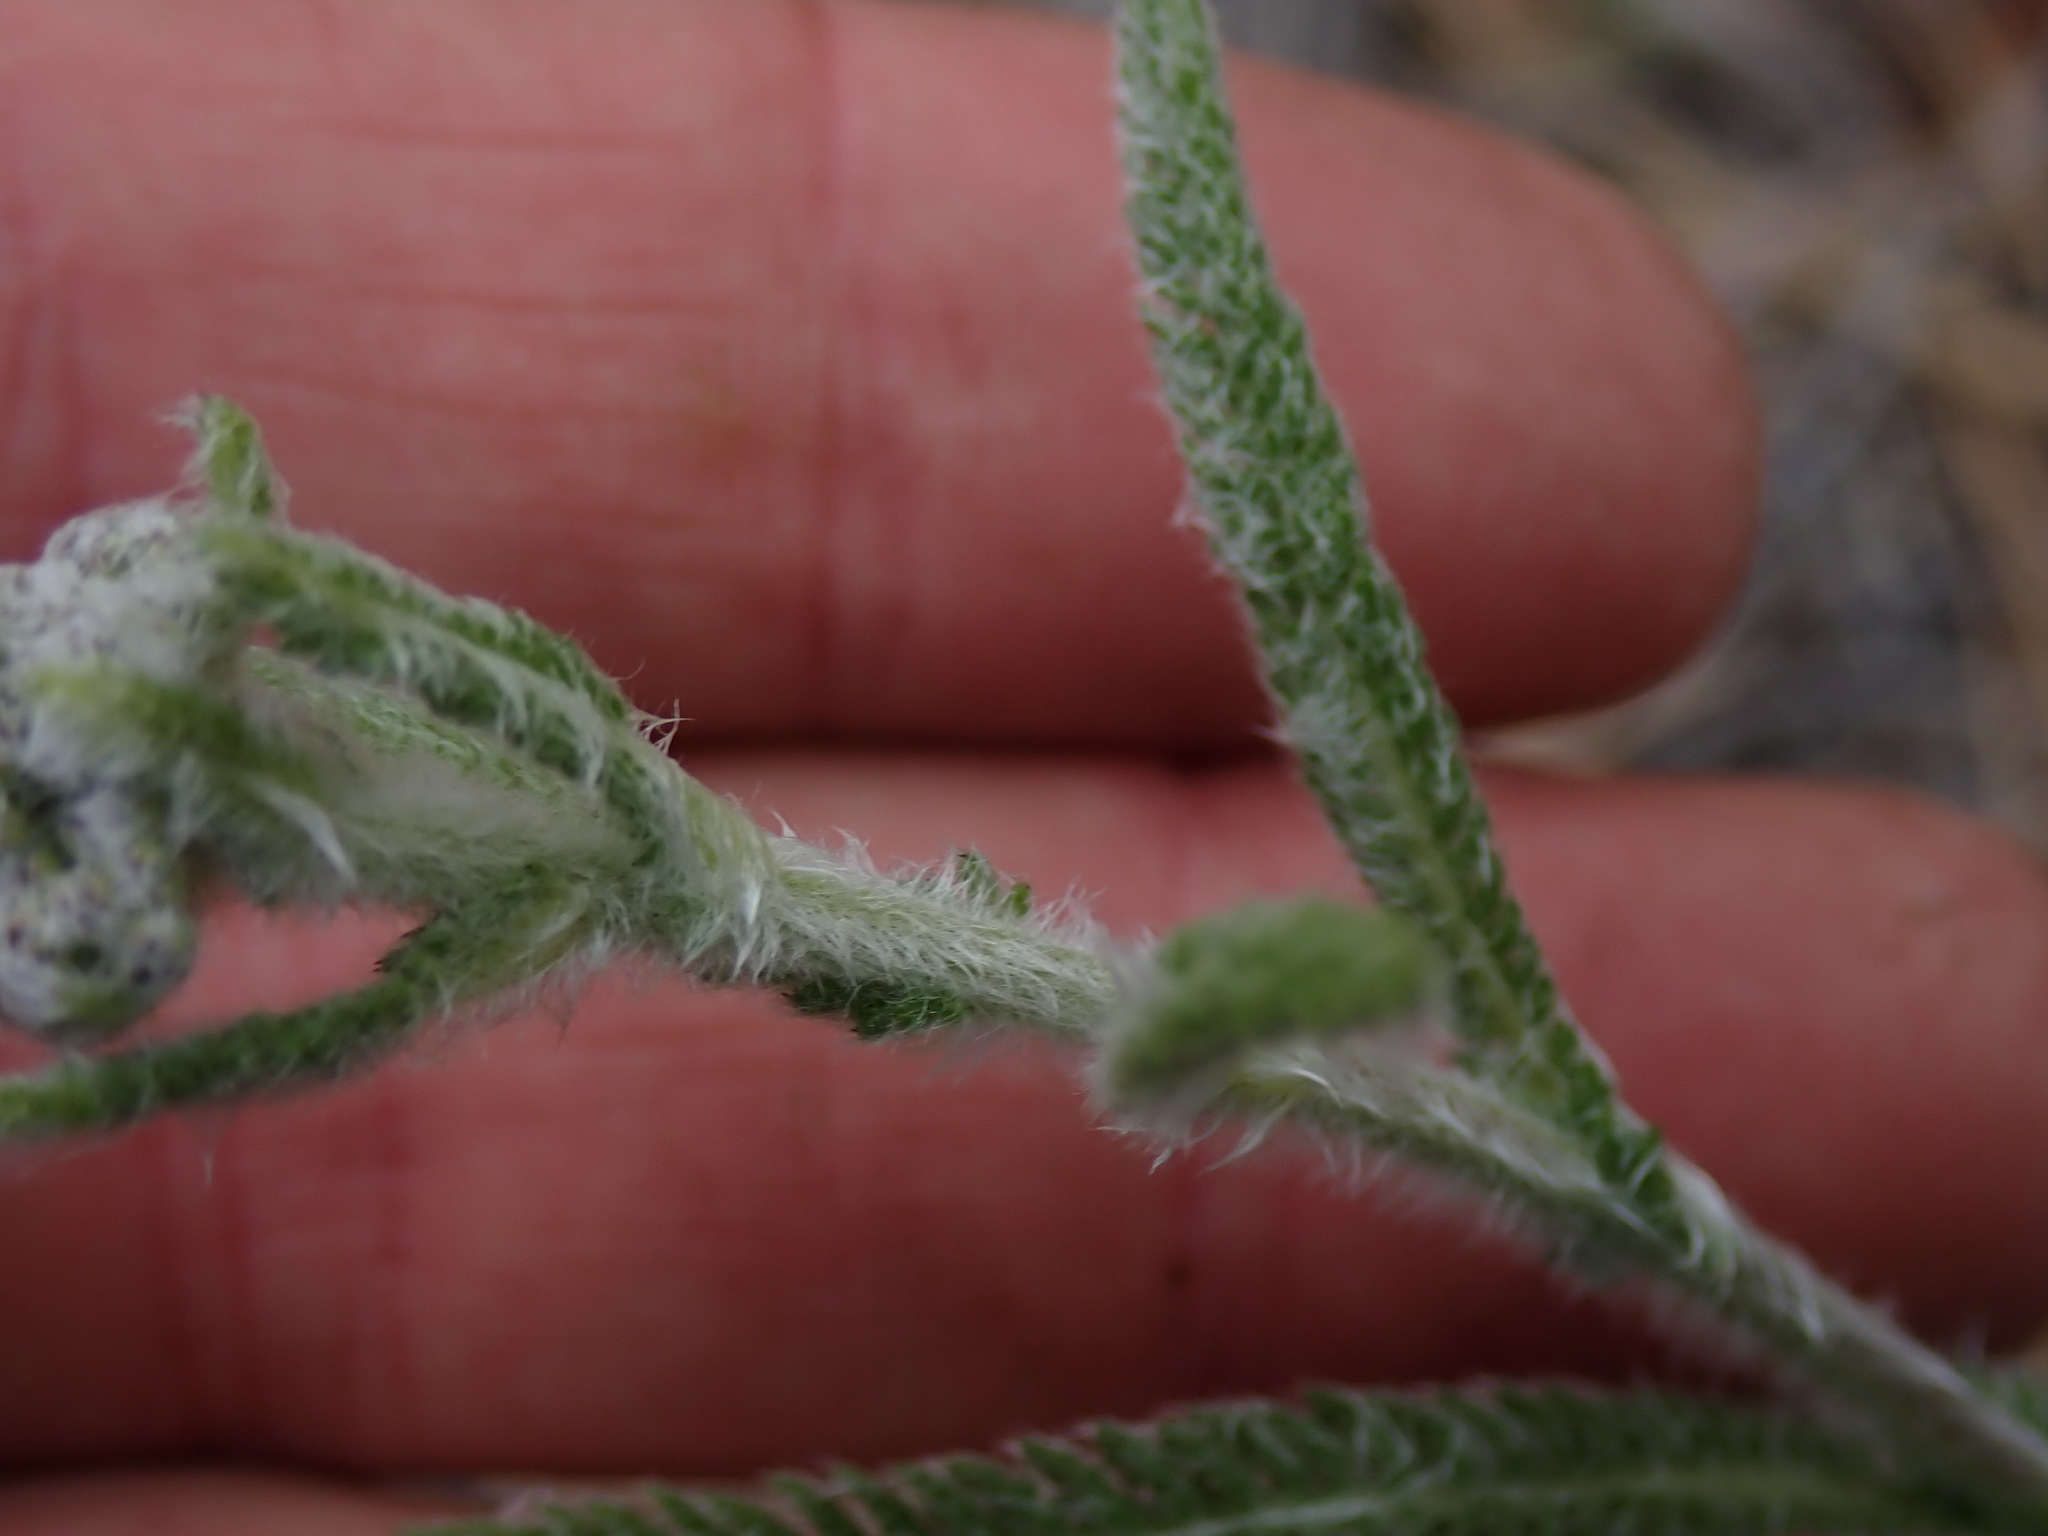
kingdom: Plantae
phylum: Tracheophyta
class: Magnoliopsida
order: Asterales
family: Asteraceae
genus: Achillea
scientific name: Achillea millefolium
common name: Yarrow
